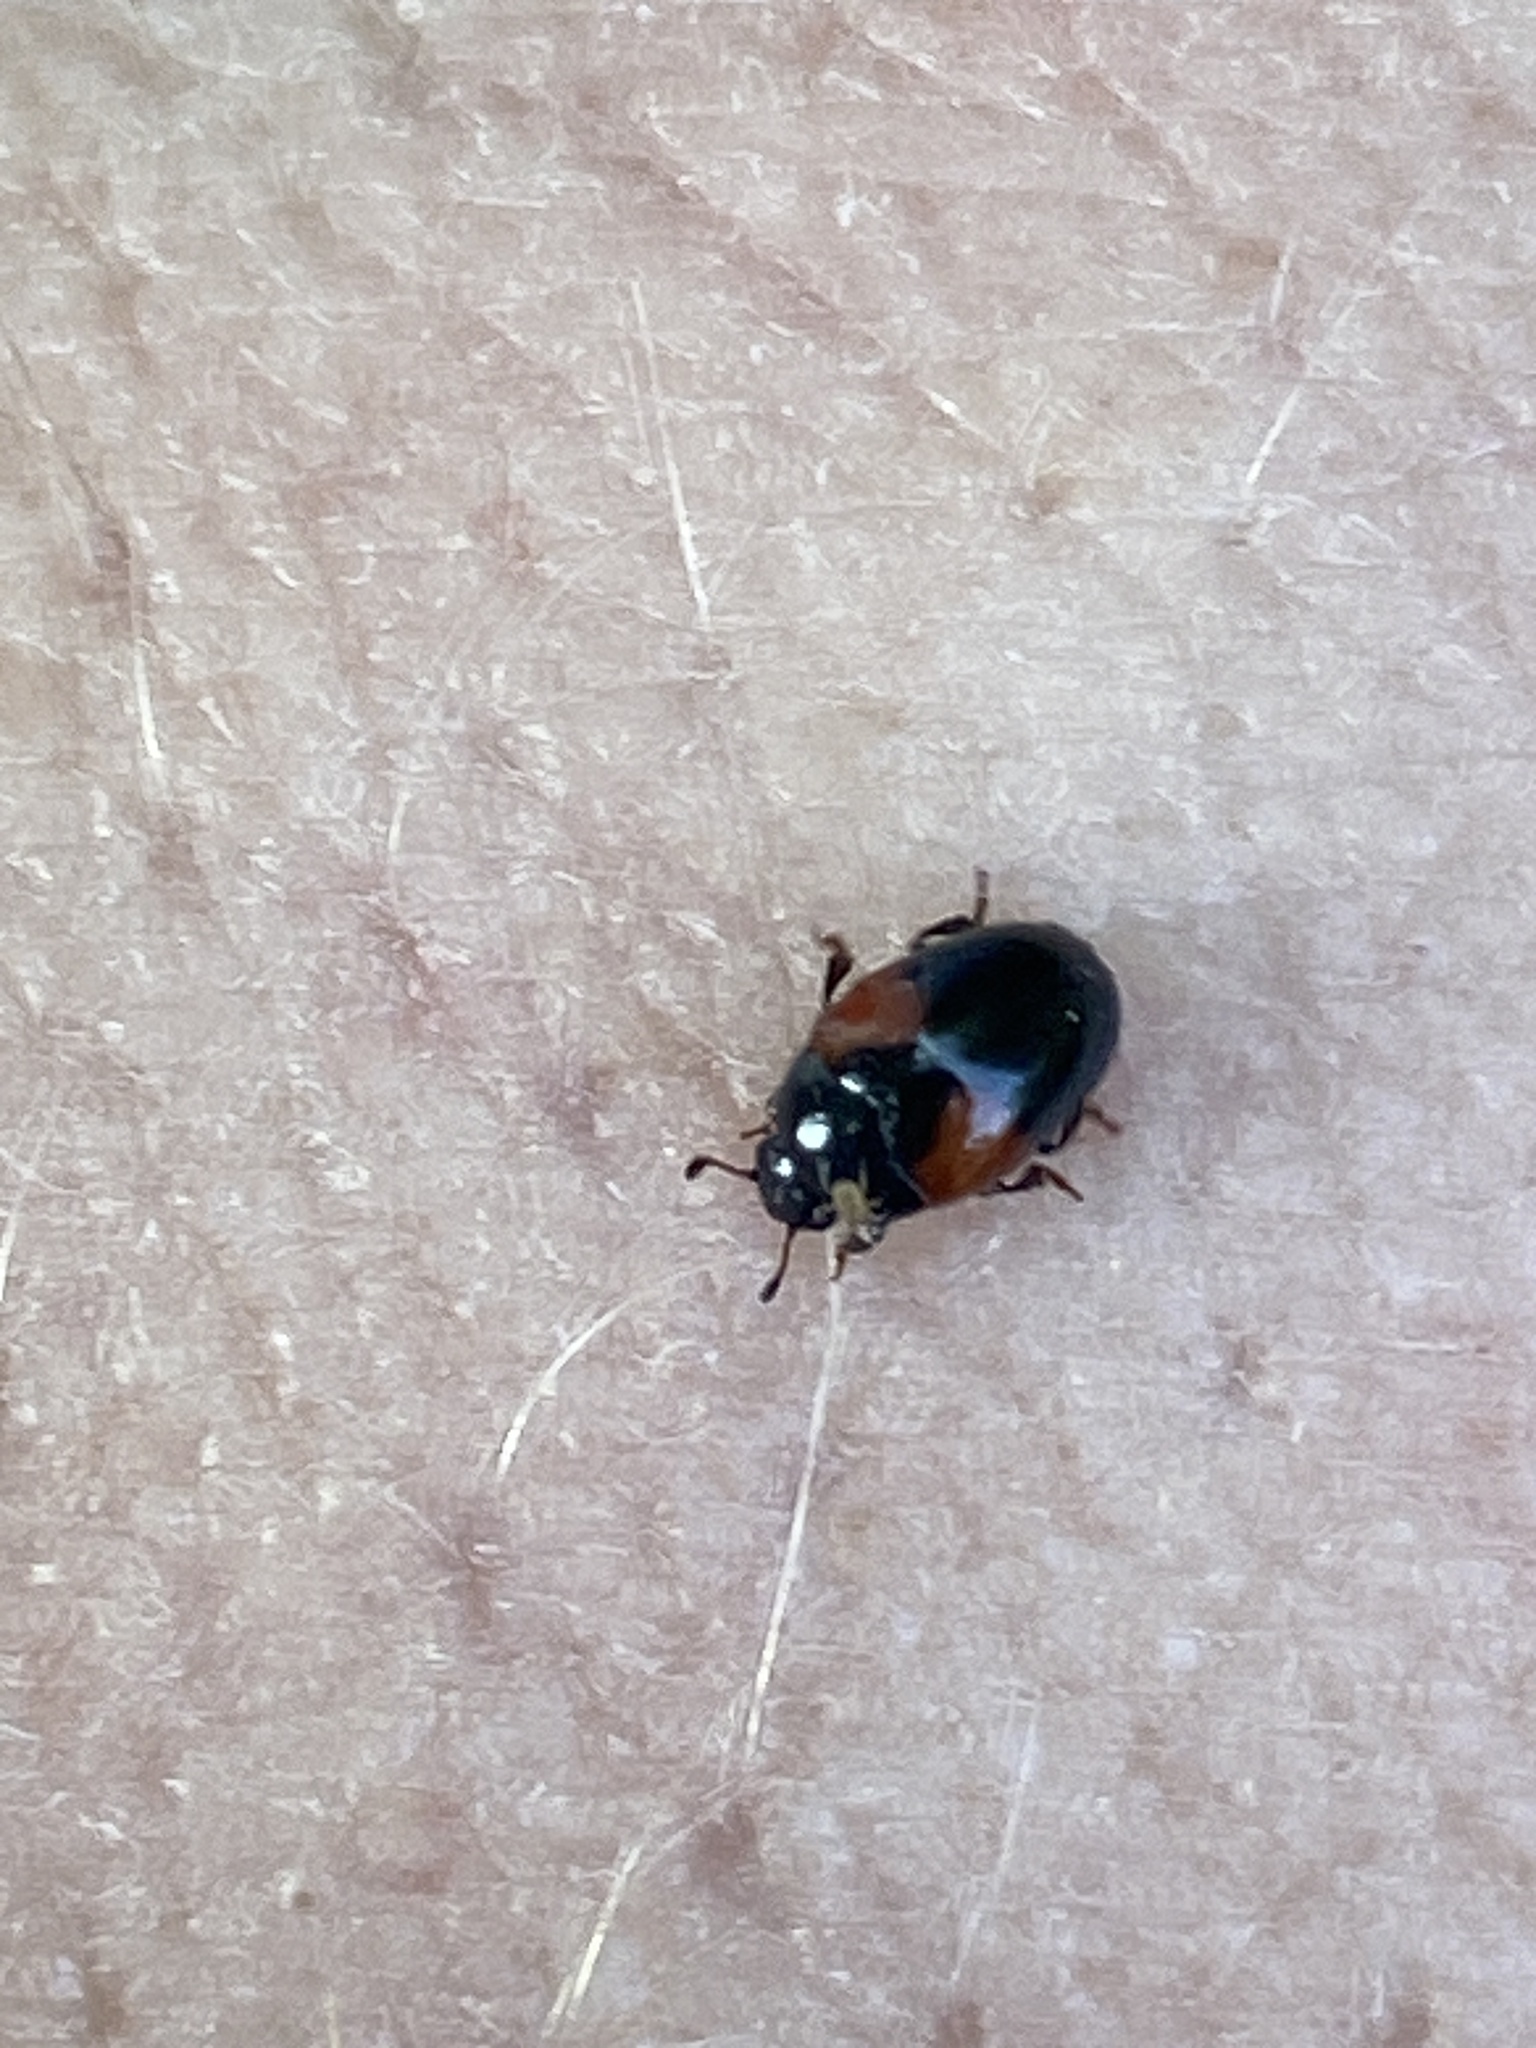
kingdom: Animalia
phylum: Arthropoda
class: Insecta
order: Coleoptera
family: Erotylidae
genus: Tritoma
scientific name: Tritoma bipustulata
